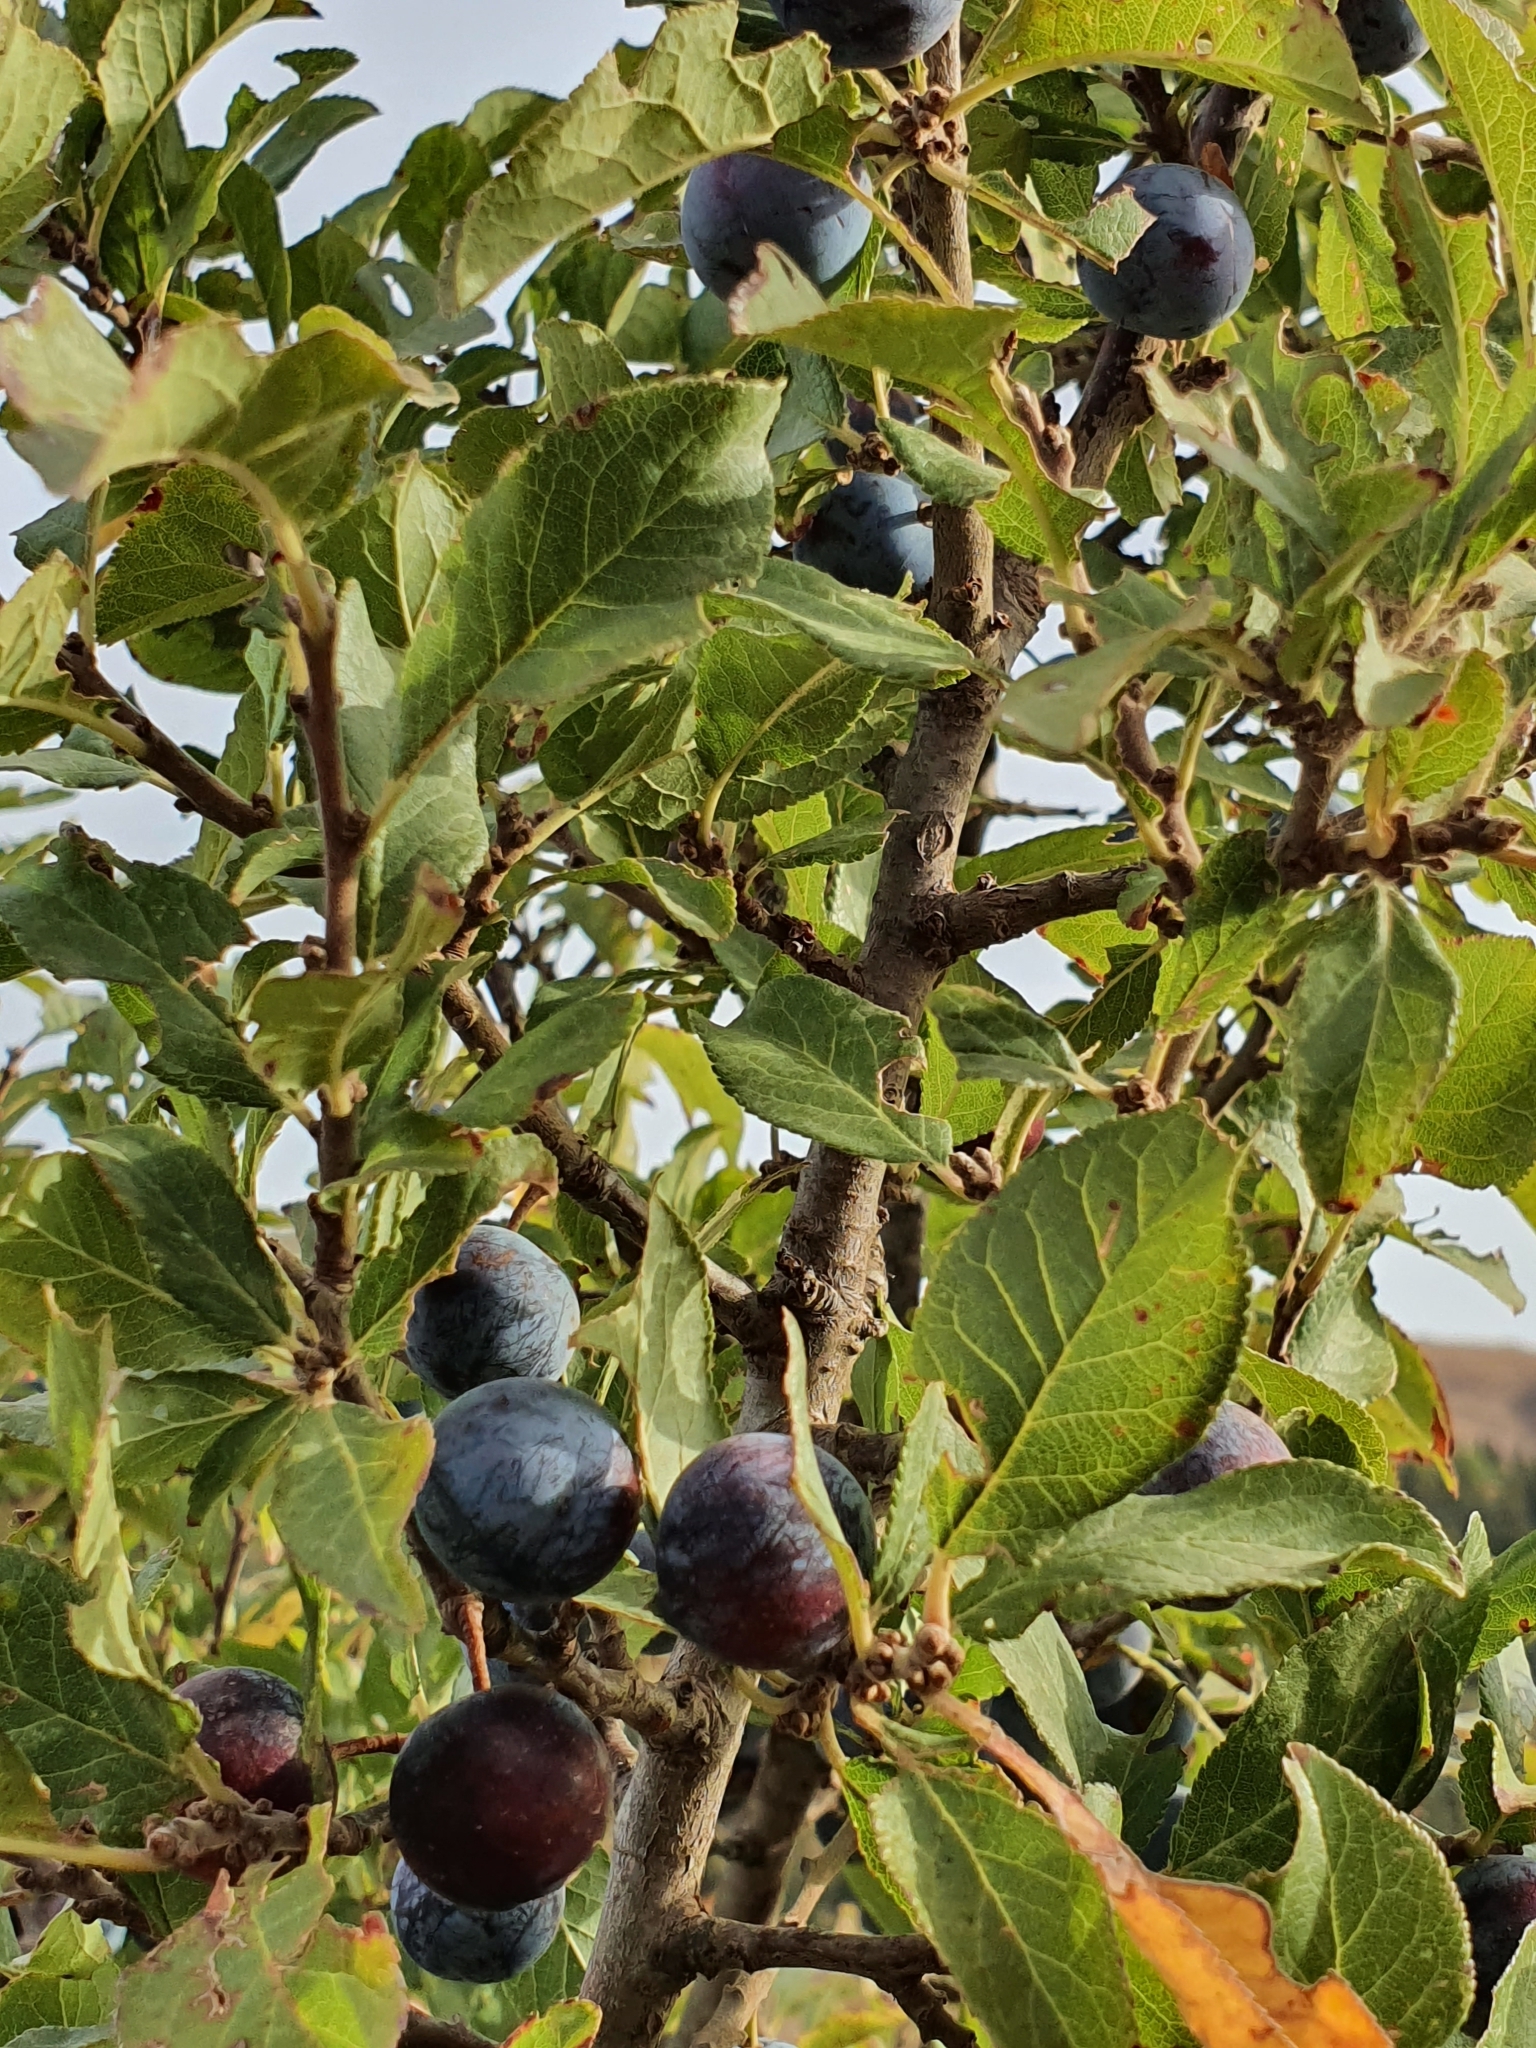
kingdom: Plantae
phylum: Tracheophyta
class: Magnoliopsida
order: Rosales
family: Rosaceae
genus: Prunus
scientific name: Prunus spinosa
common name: Blackthorn
